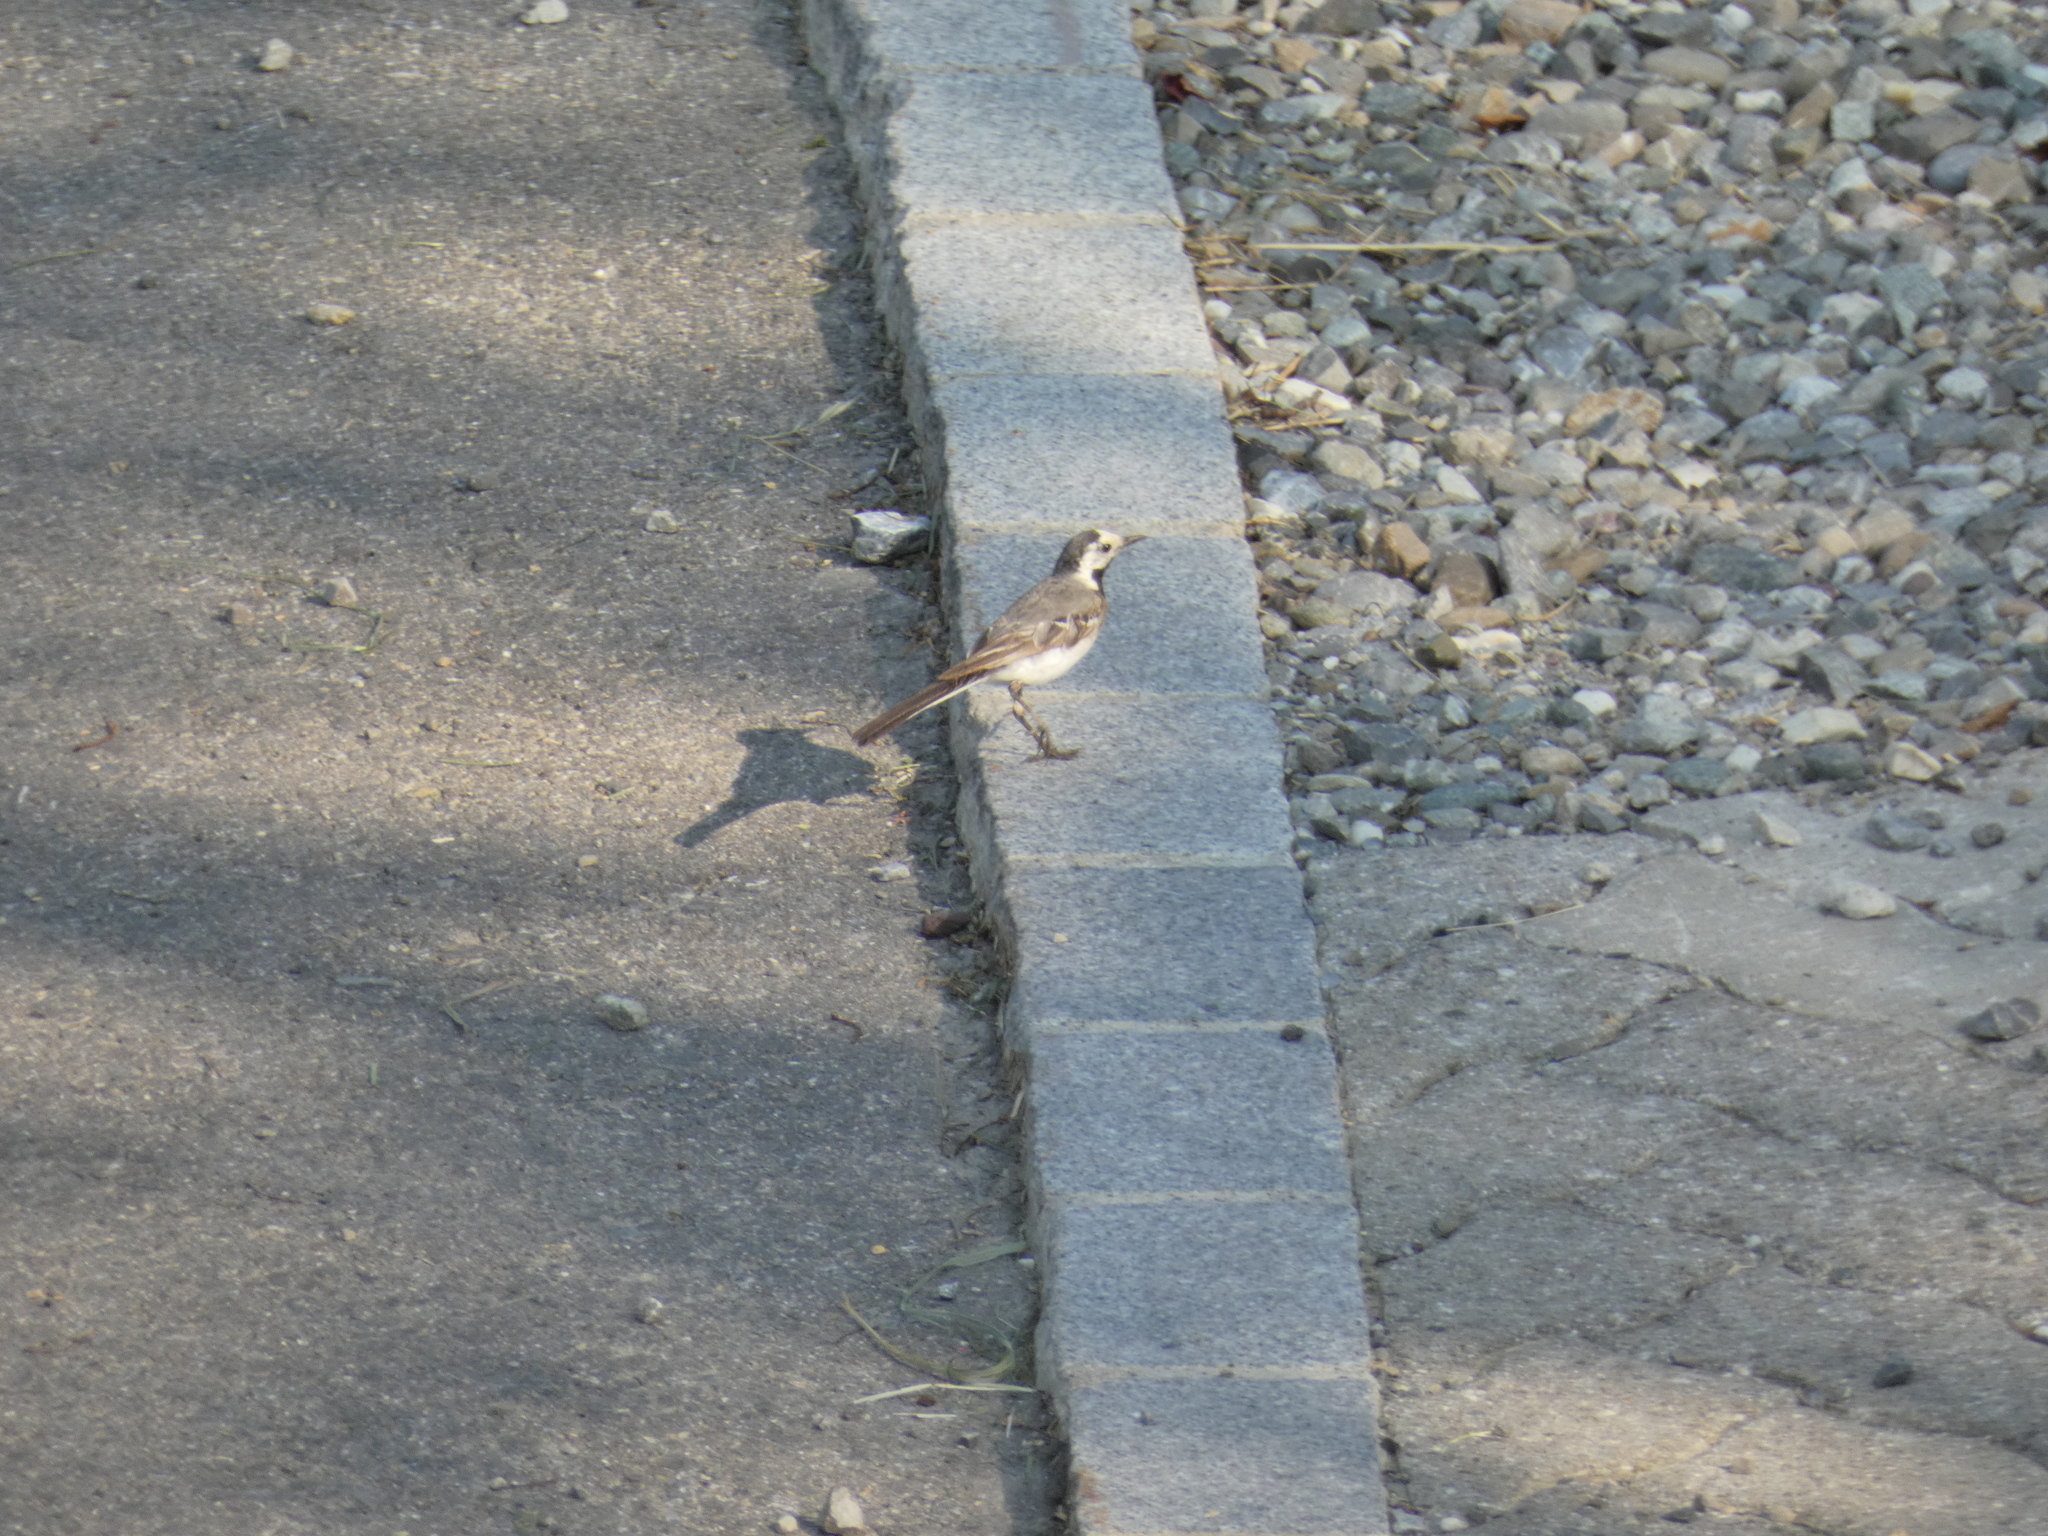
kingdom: Animalia
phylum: Chordata
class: Aves
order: Passeriformes
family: Motacillidae
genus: Motacilla
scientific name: Motacilla alba
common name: White wagtail
